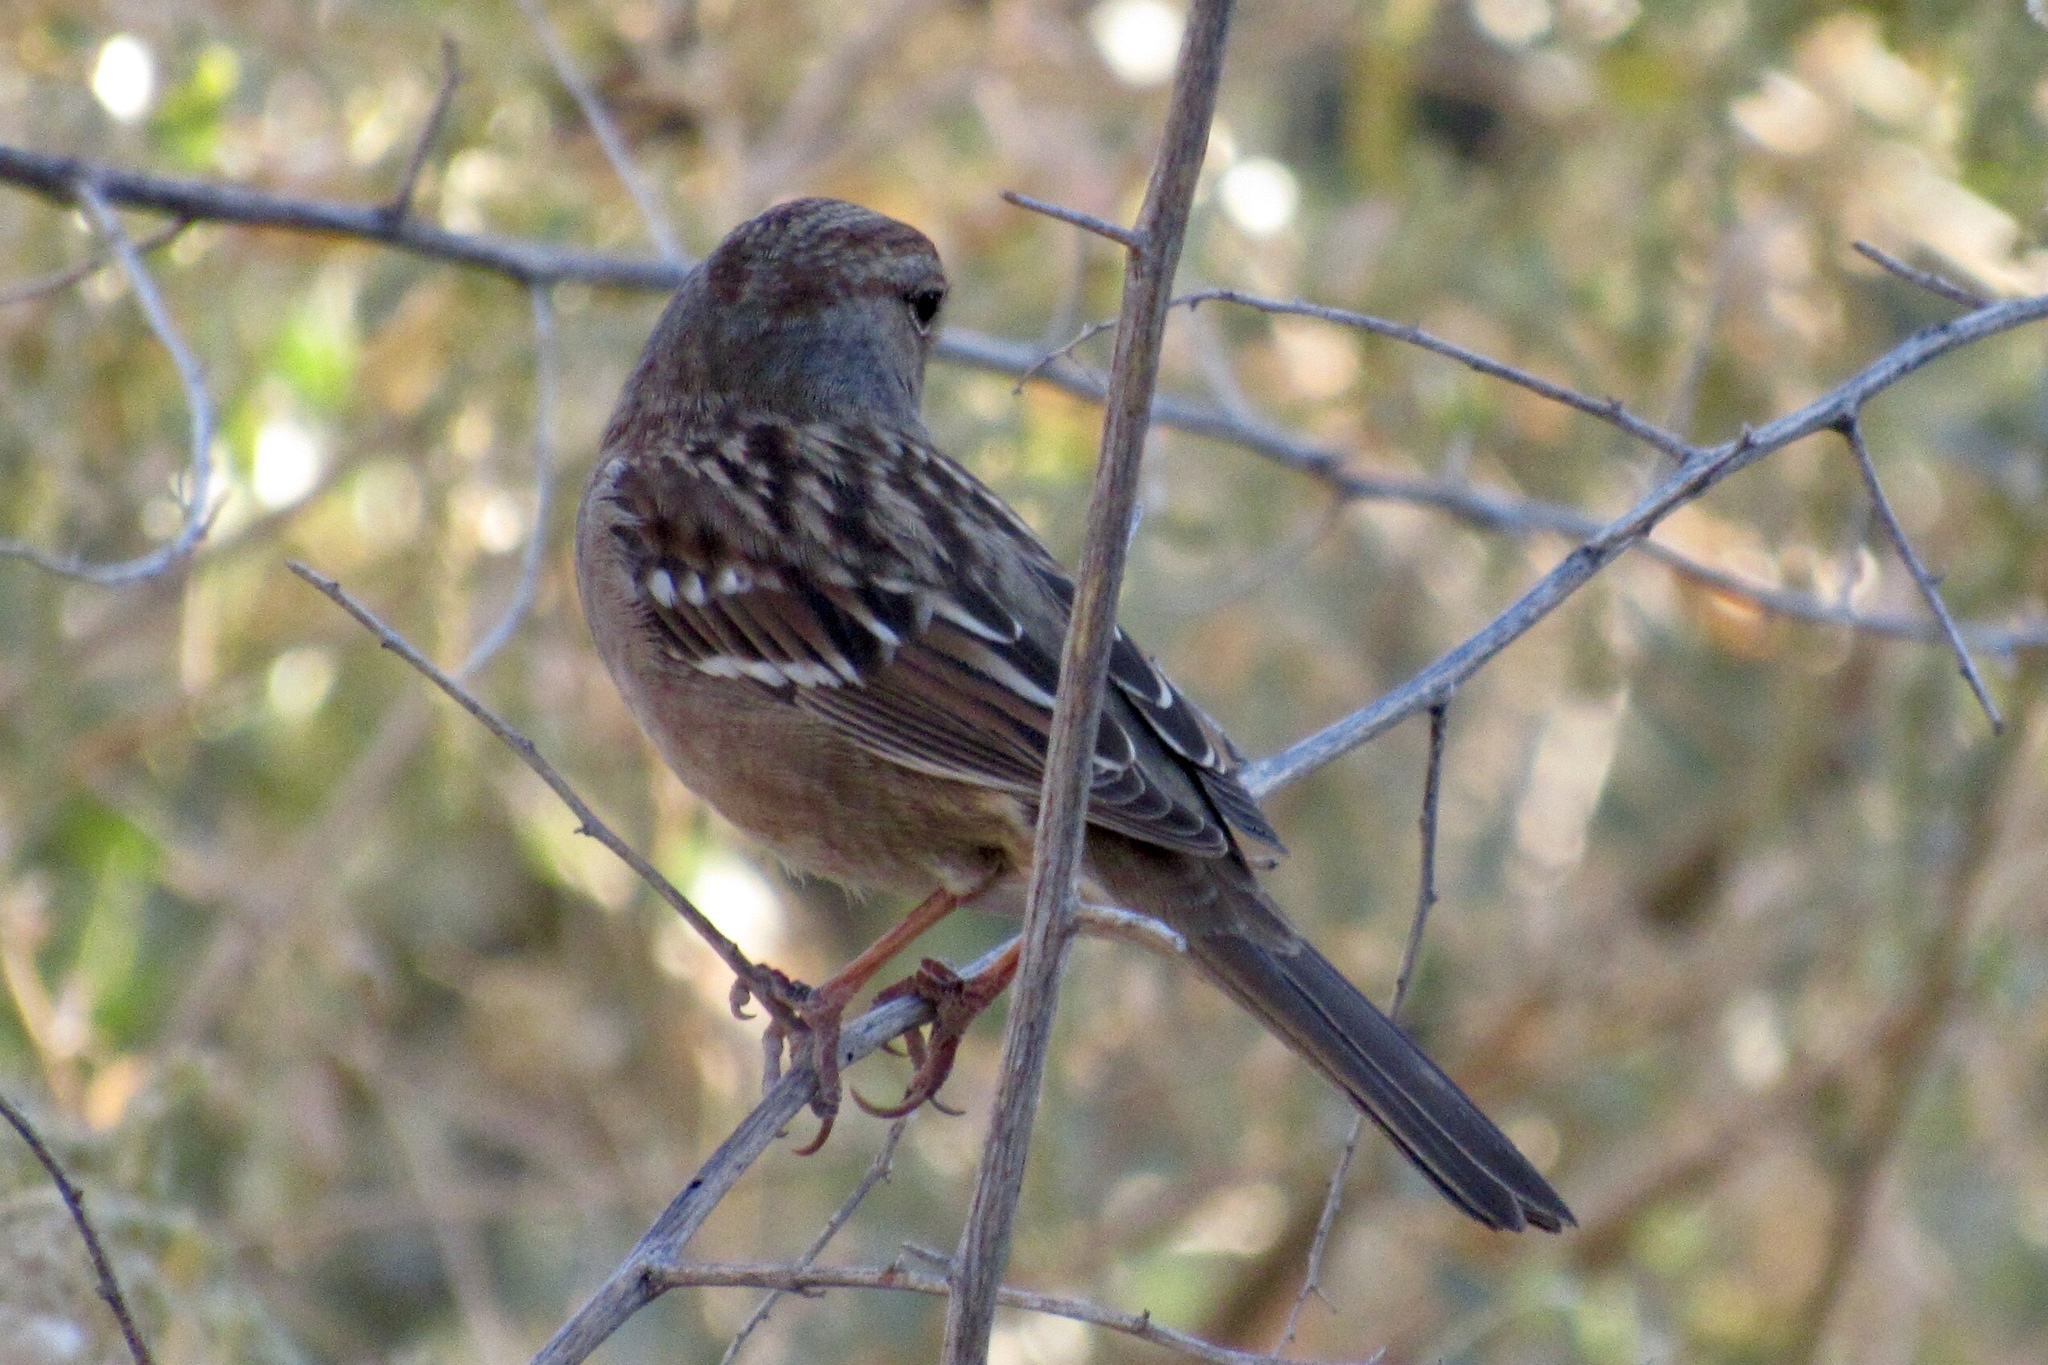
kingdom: Animalia
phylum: Chordata
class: Aves
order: Passeriformes
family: Passerellidae
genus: Zonotrichia
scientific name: Zonotrichia leucophrys
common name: White-crowned sparrow
